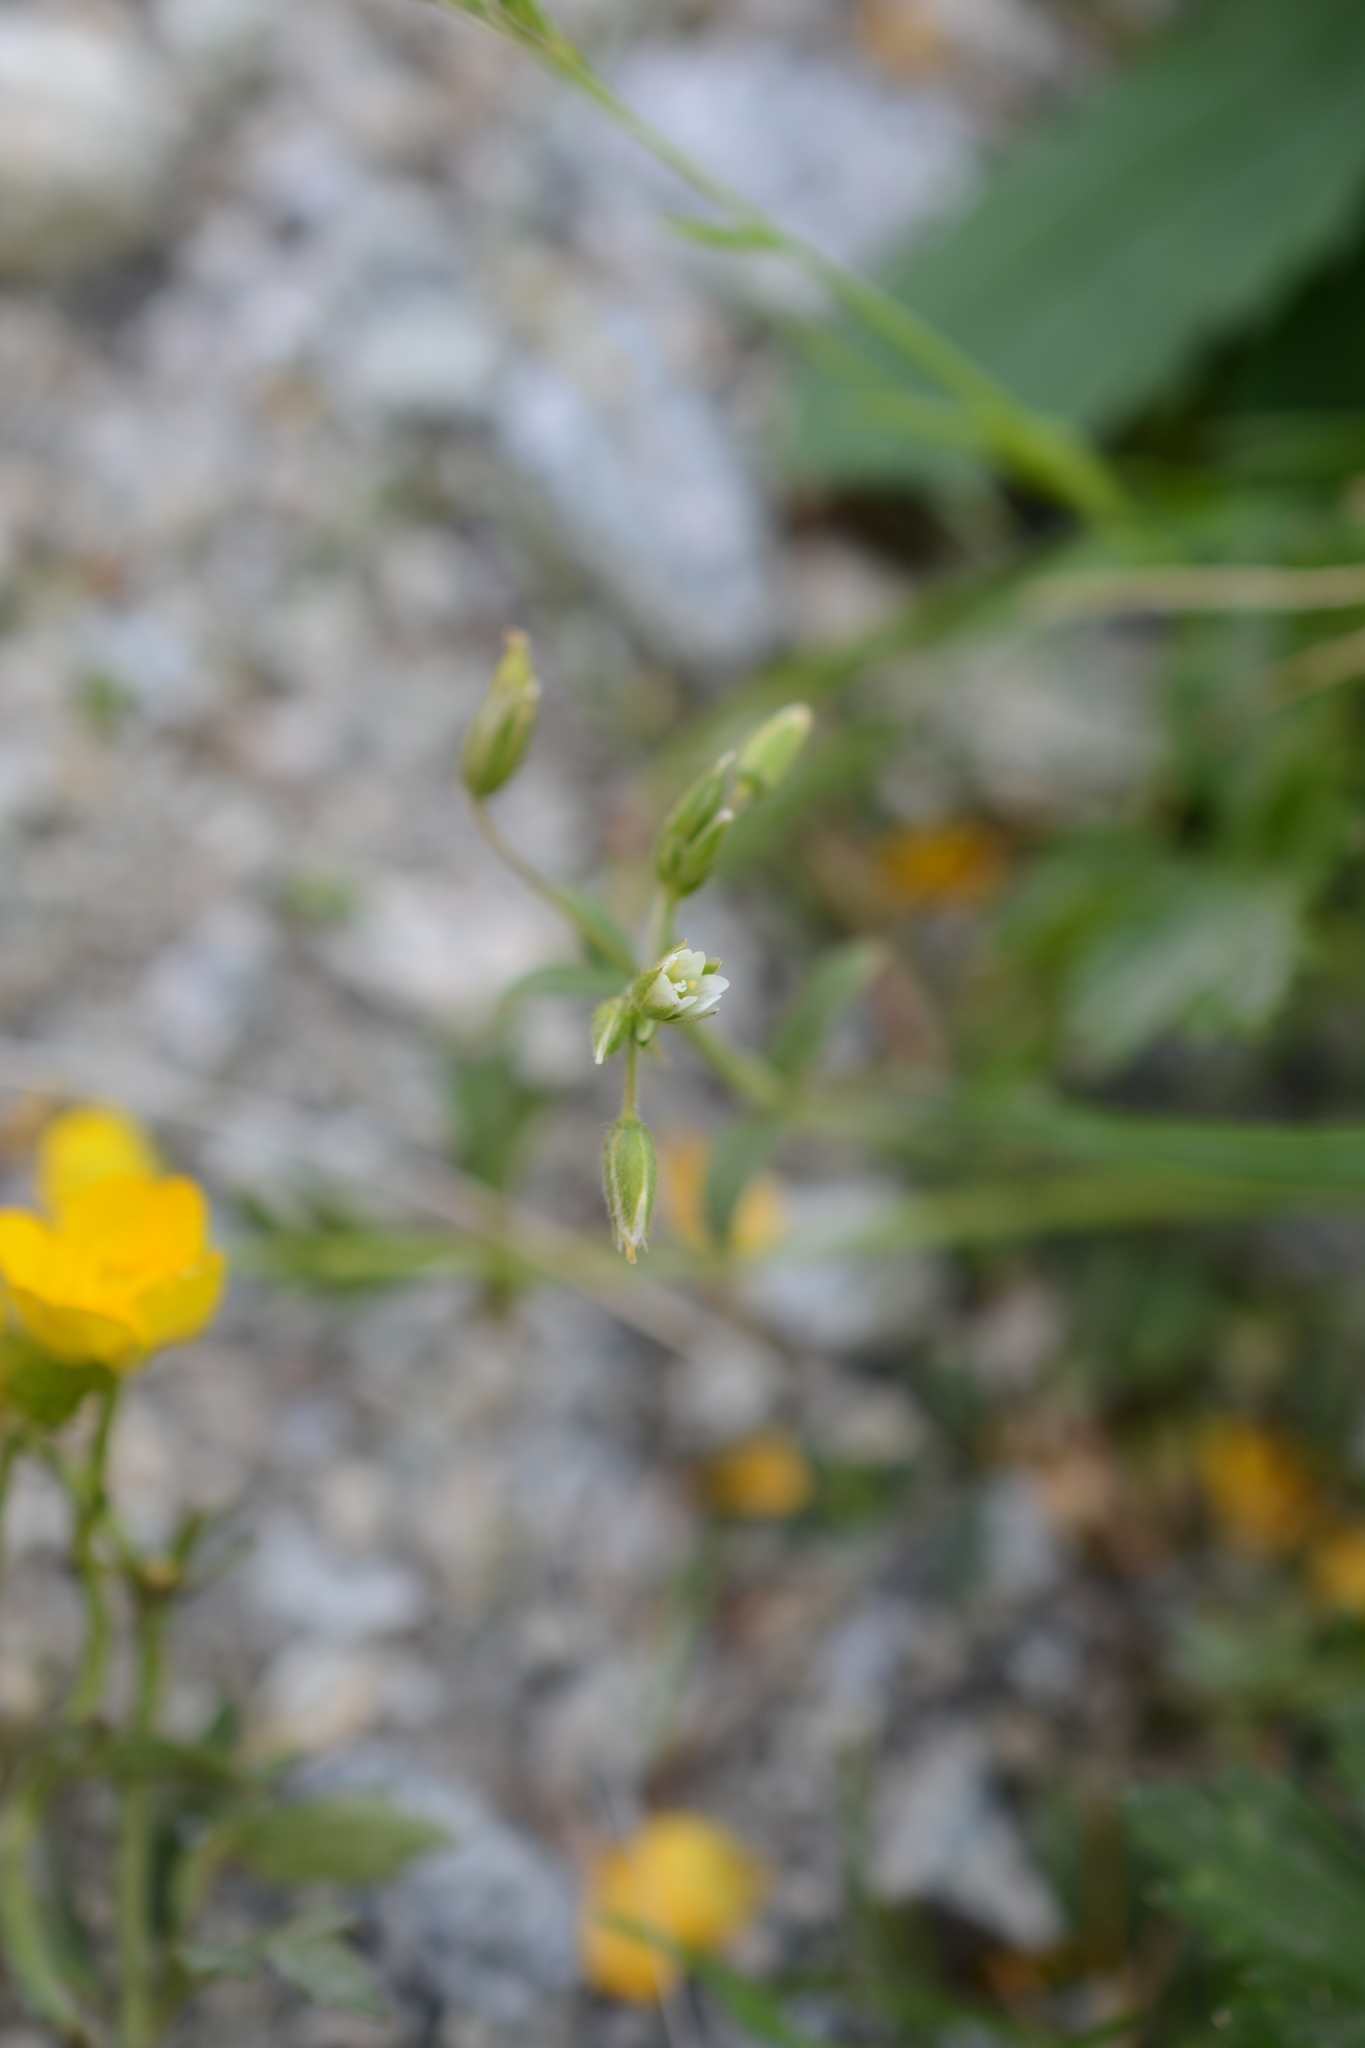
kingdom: Plantae
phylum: Tracheophyta
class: Magnoliopsida
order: Caryophyllales
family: Caryophyllaceae
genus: Cerastium
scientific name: Cerastium fontanum
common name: Common mouse-ear
